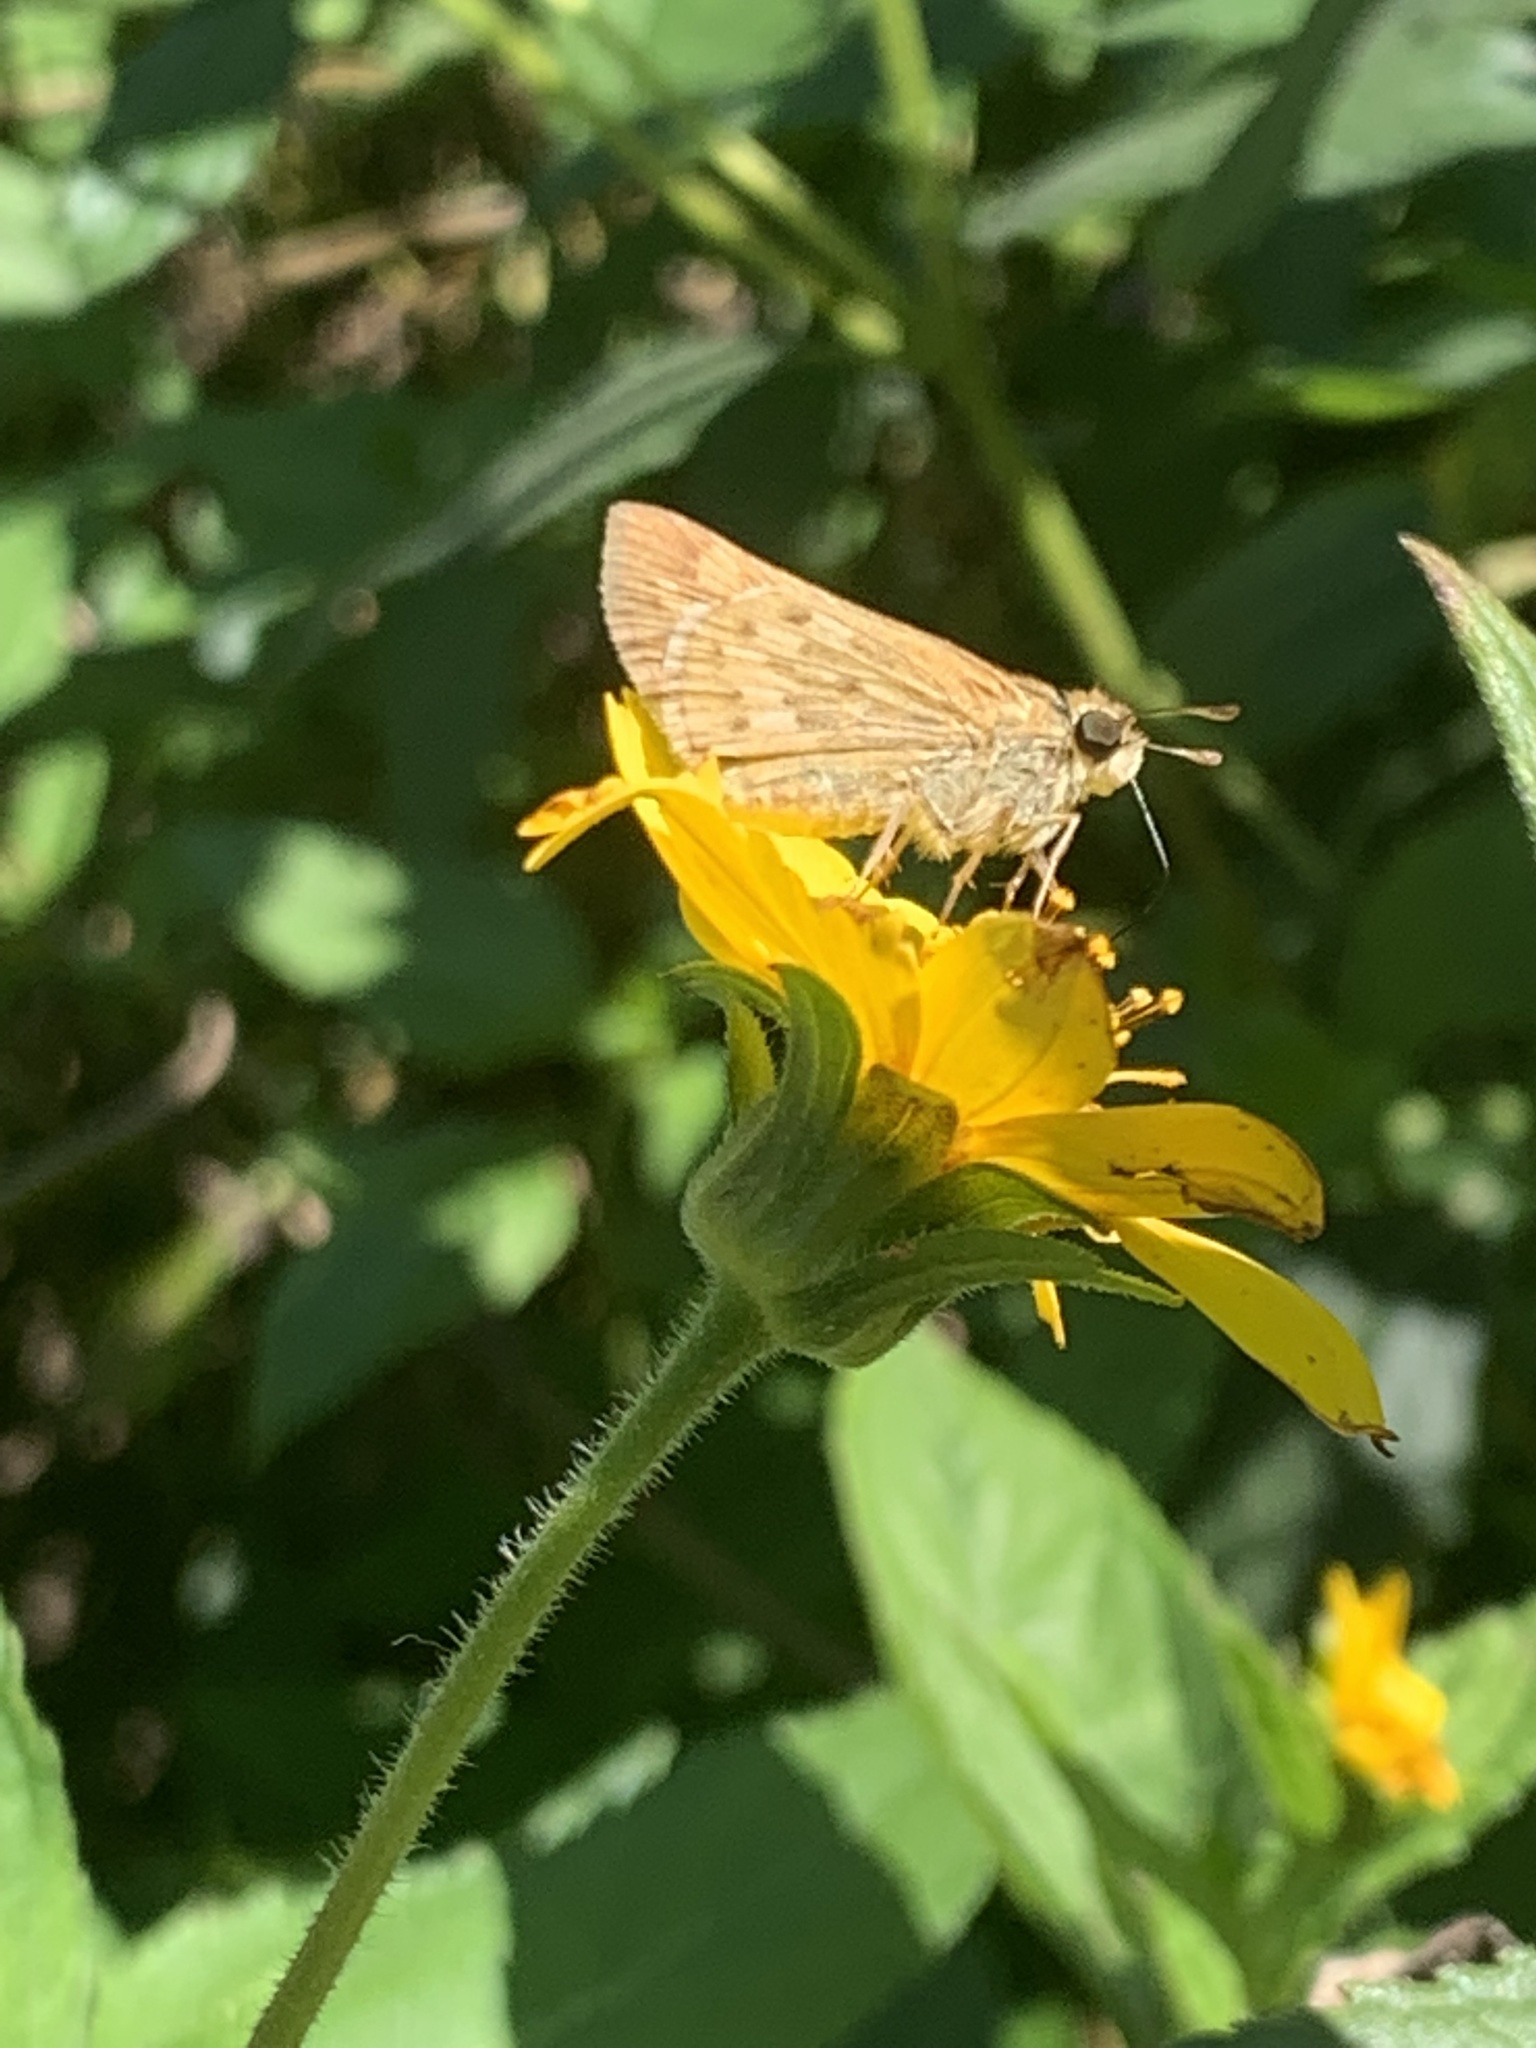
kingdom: Animalia
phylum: Arthropoda
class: Insecta
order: Lepidoptera
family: Hesperiidae
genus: Hylephila
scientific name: Hylephila phyleus
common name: Fiery skipper
